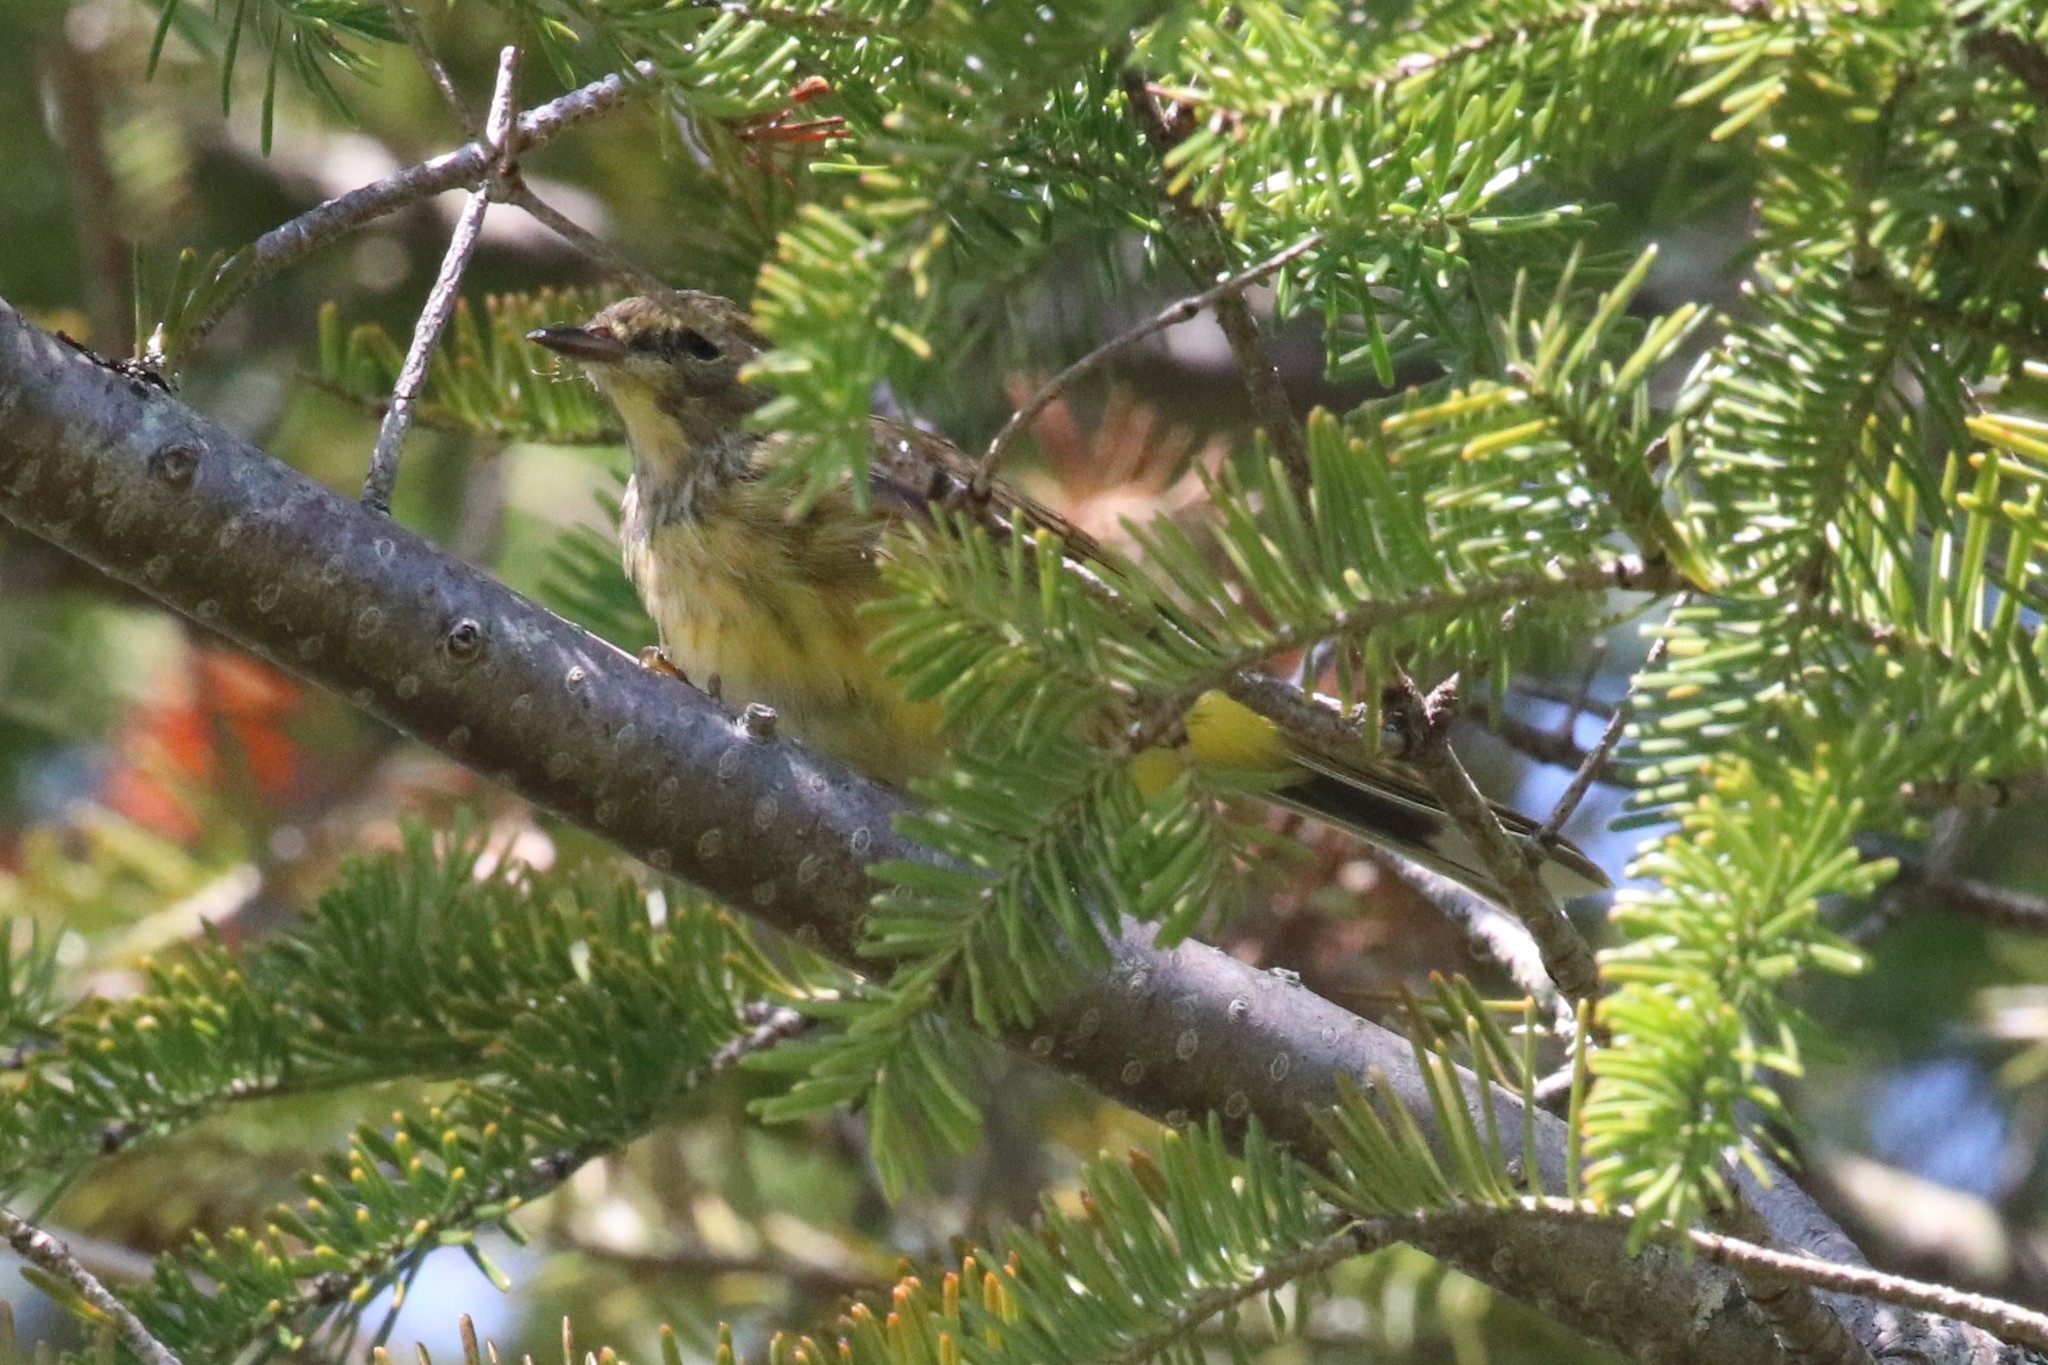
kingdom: Animalia
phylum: Chordata
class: Aves
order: Passeriformes
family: Parulidae
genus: Setophaga
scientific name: Setophaga palmarum
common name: Palm warbler
